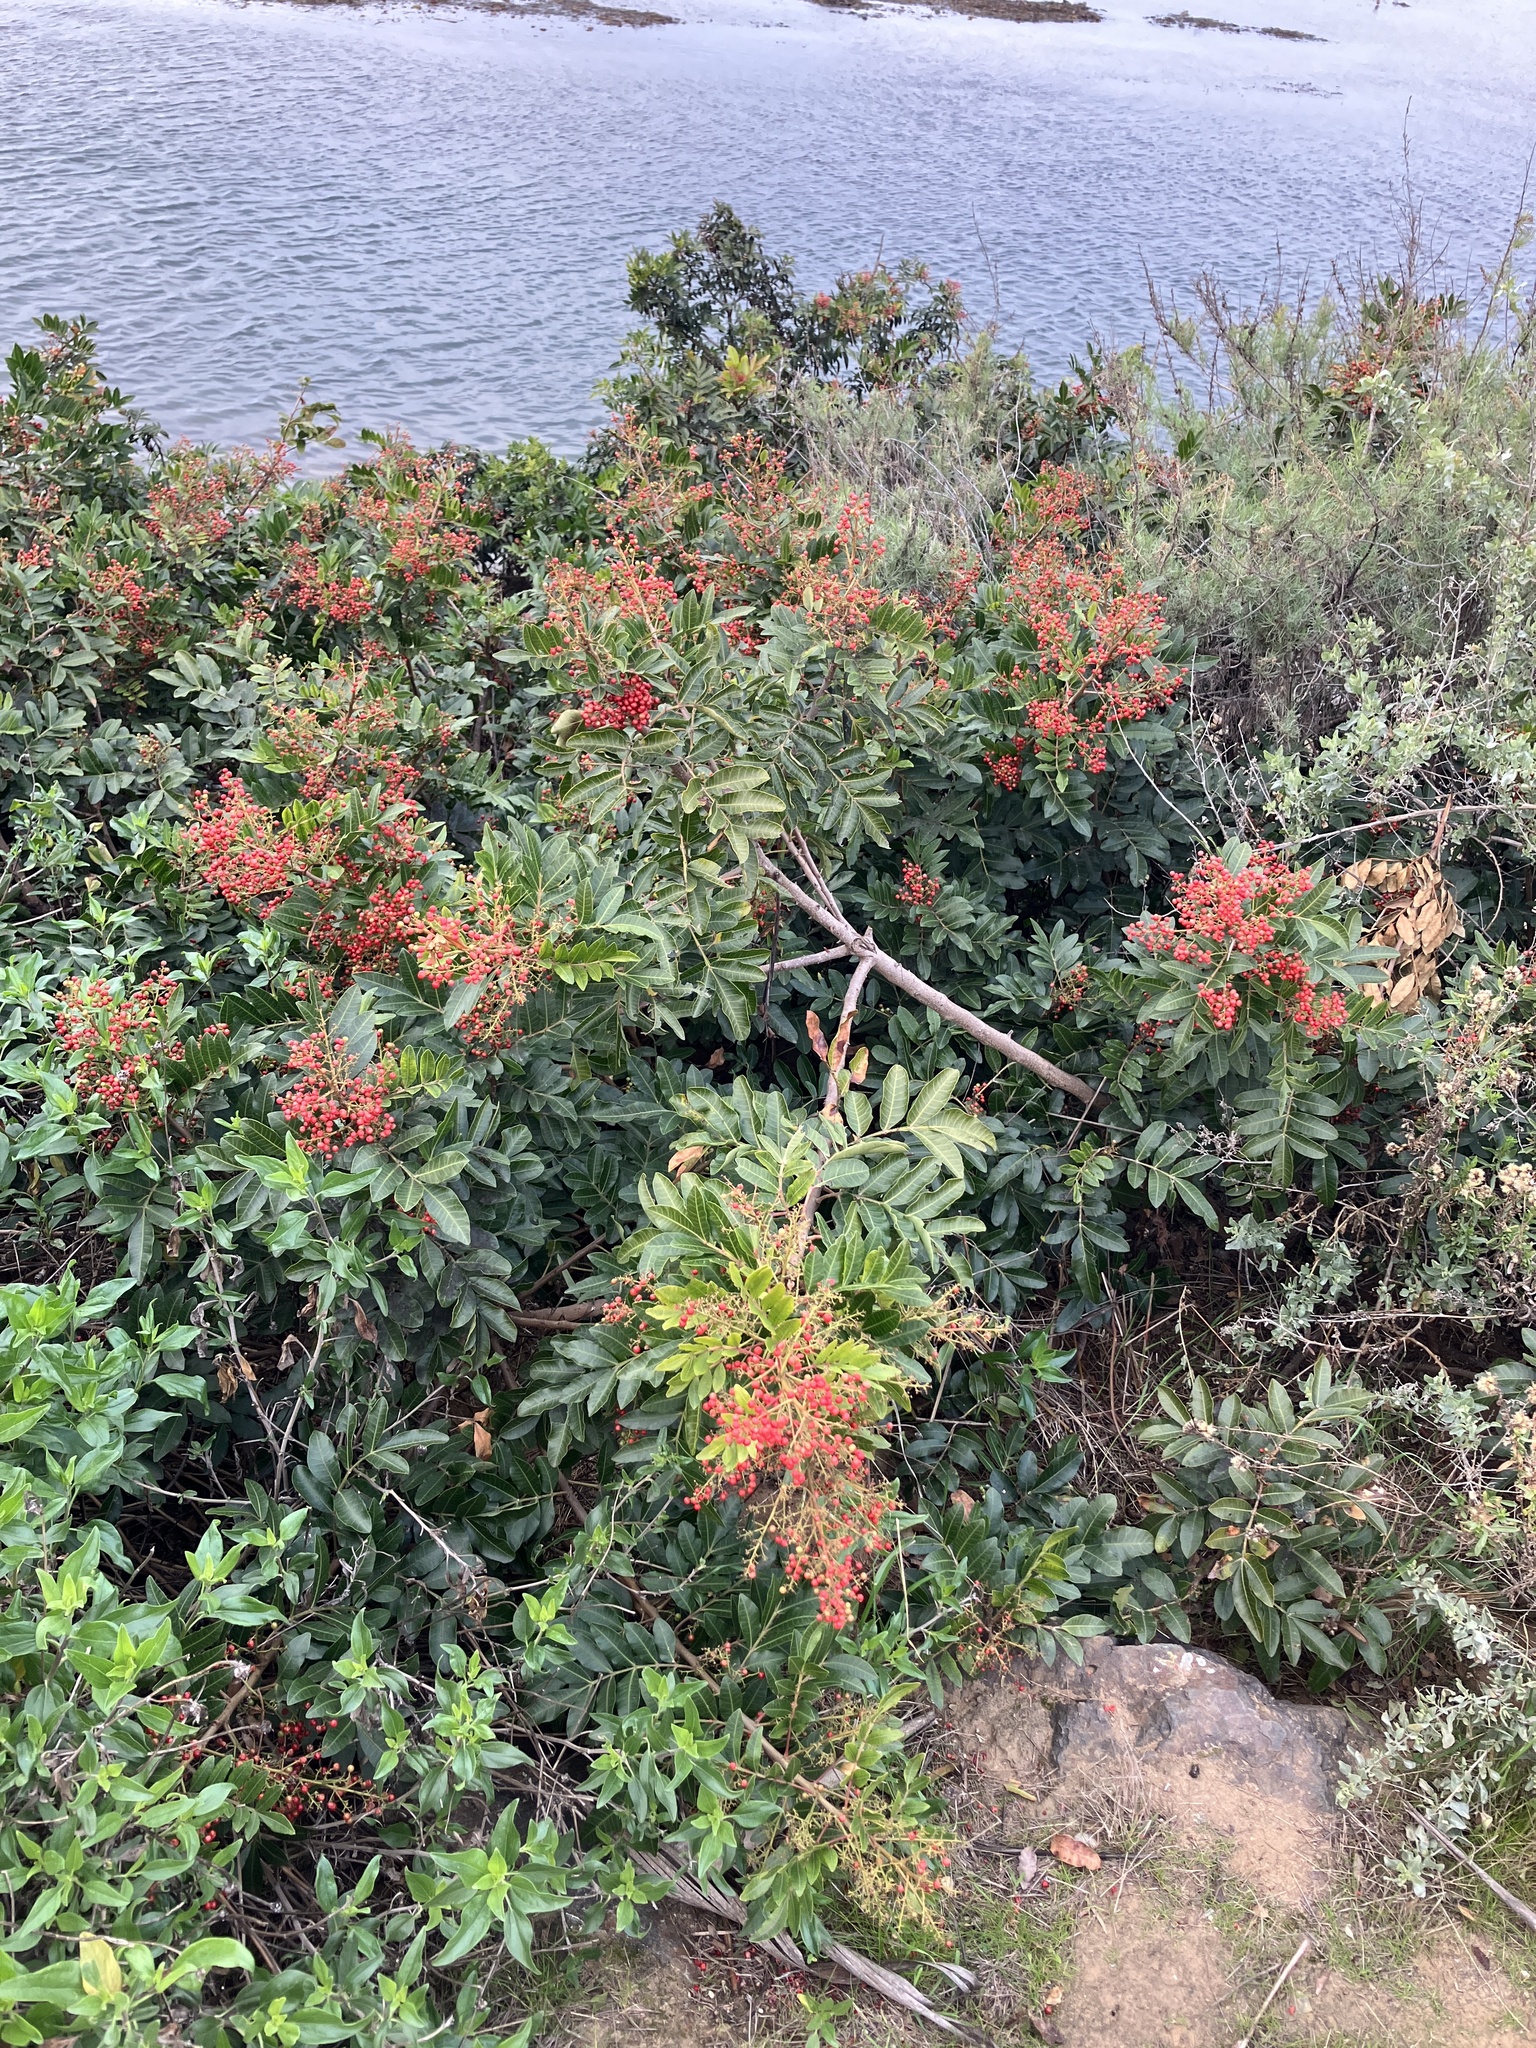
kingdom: Plantae
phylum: Tracheophyta
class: Magnoliopsida
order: Sapindales
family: Anacardiaceae
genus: Schinus
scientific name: Schinus terebinthifolia
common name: Brazilian peppertree
